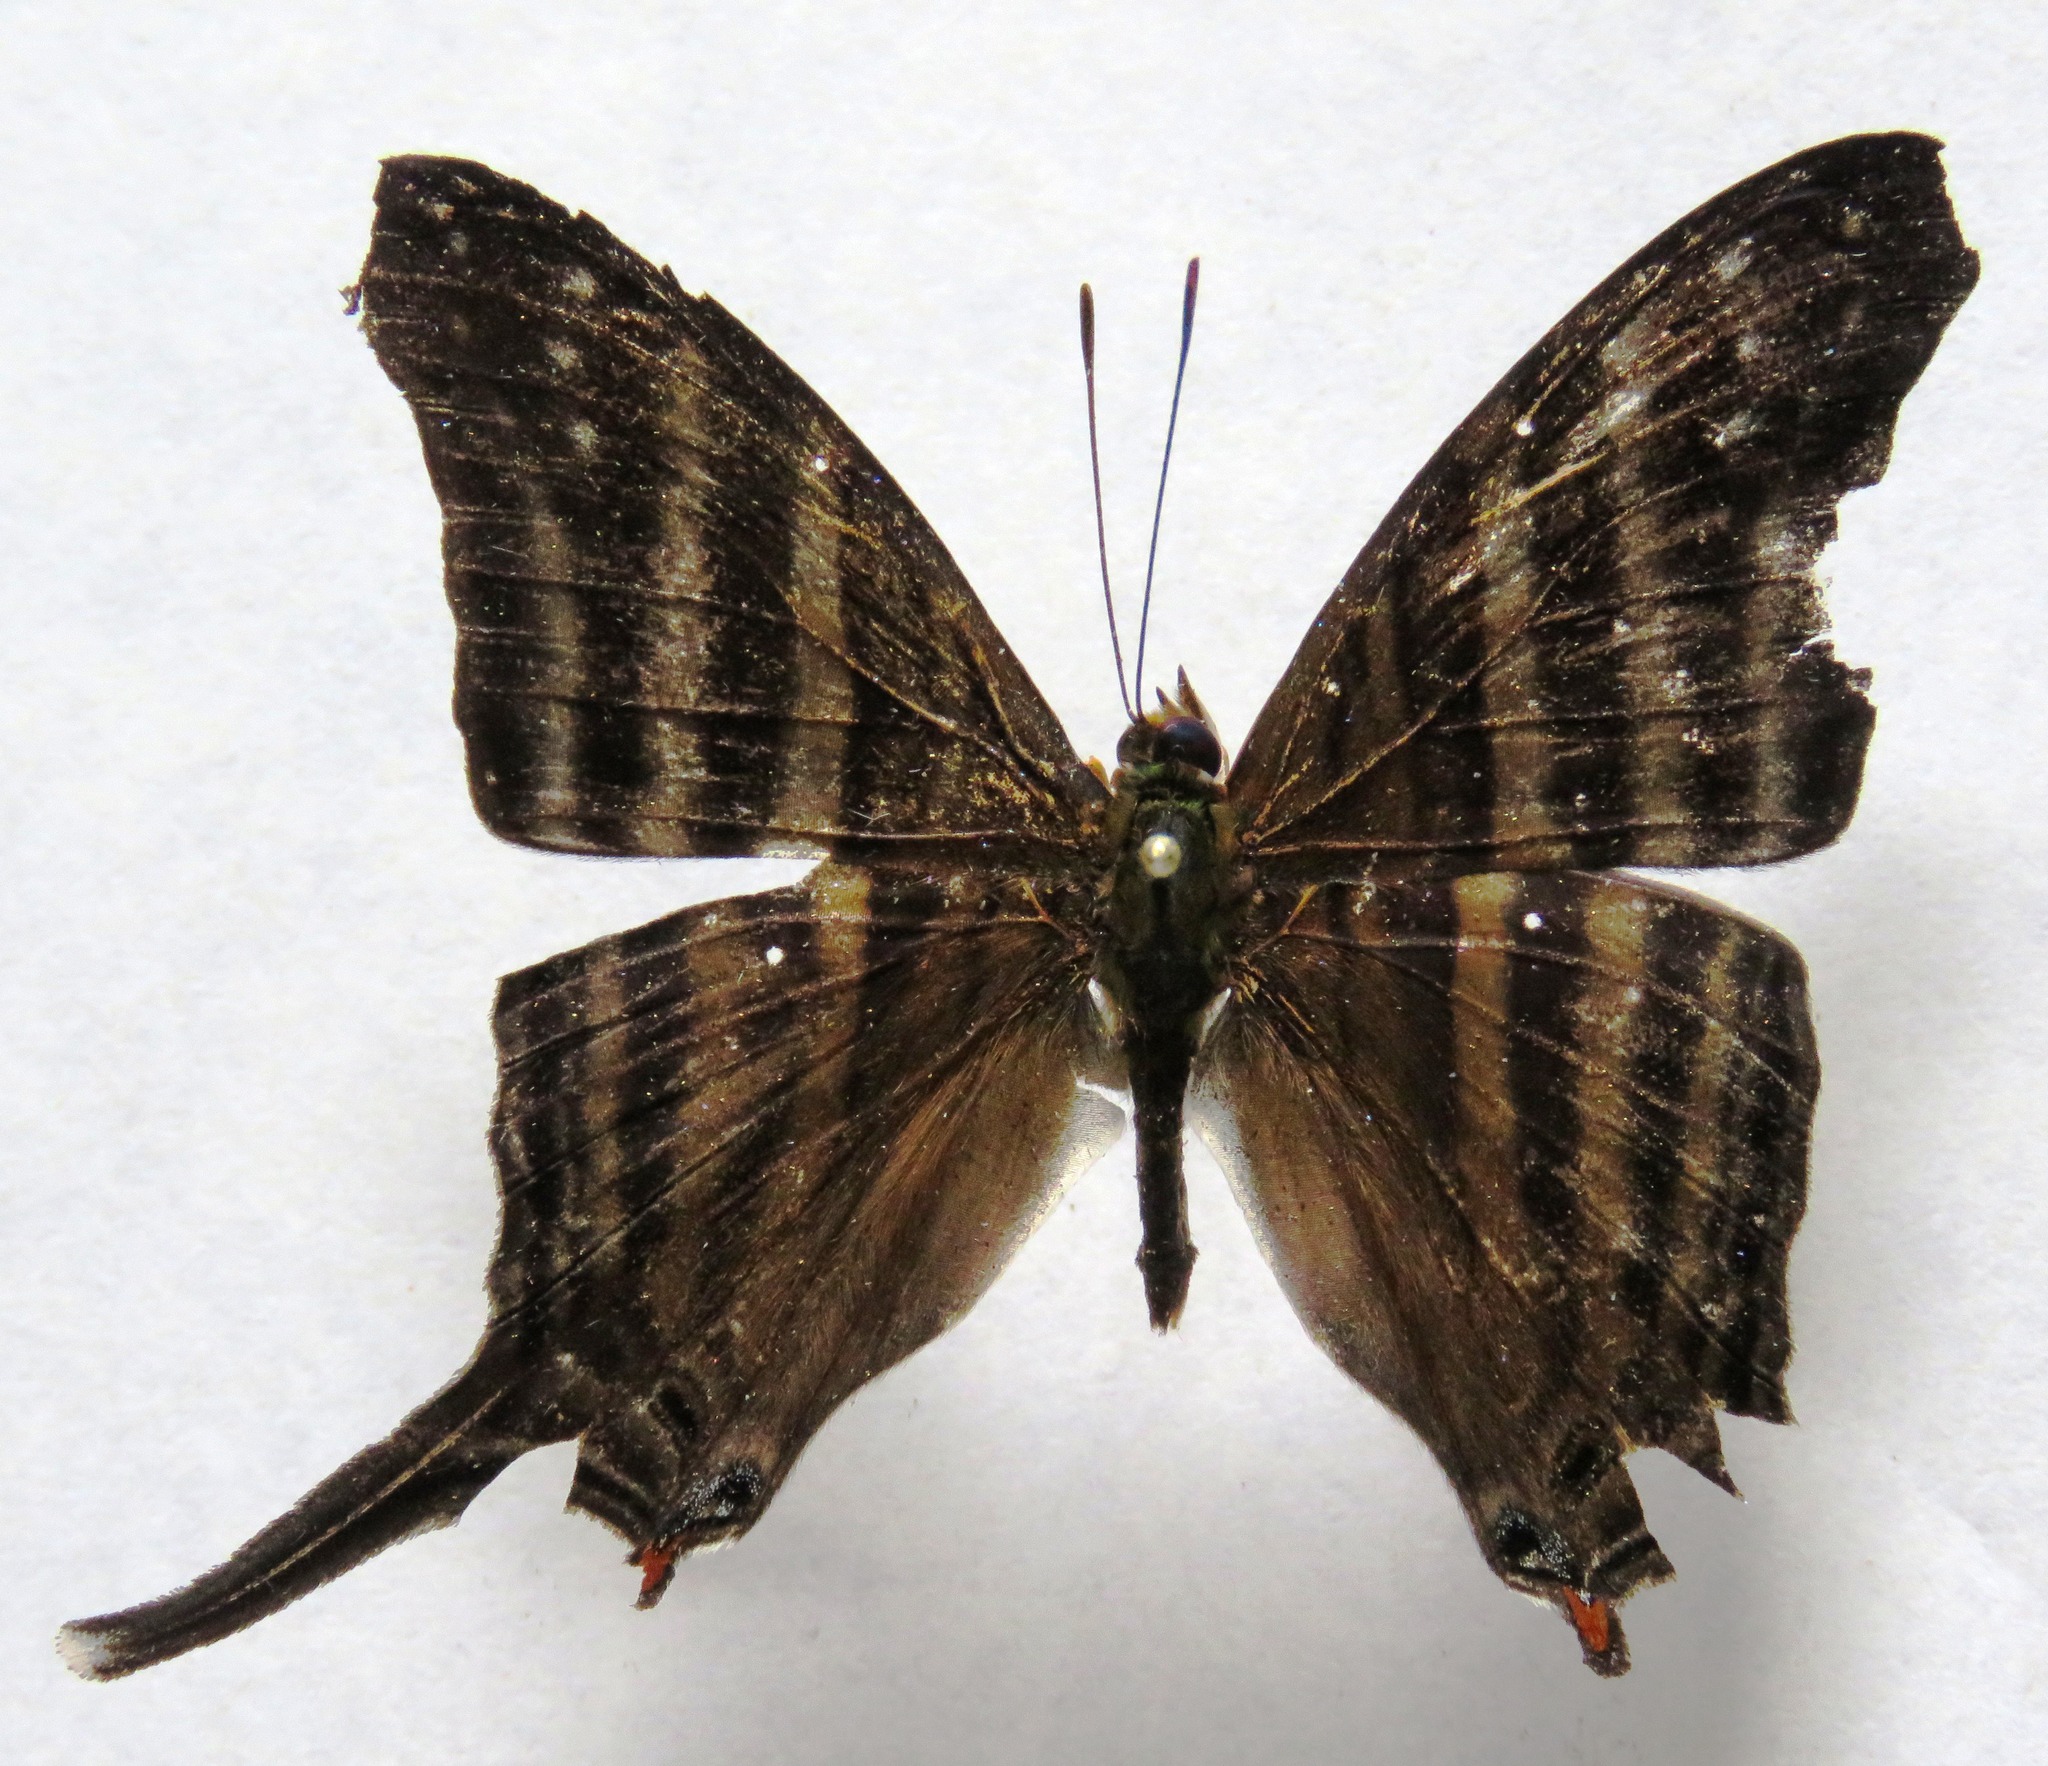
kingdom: Animalia
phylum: Arthropoda
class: Insecta
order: Lepidoptera
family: Nymphalidae
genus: Marpesia
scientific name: Marpesia chiron
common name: Many-banded daggerwing
